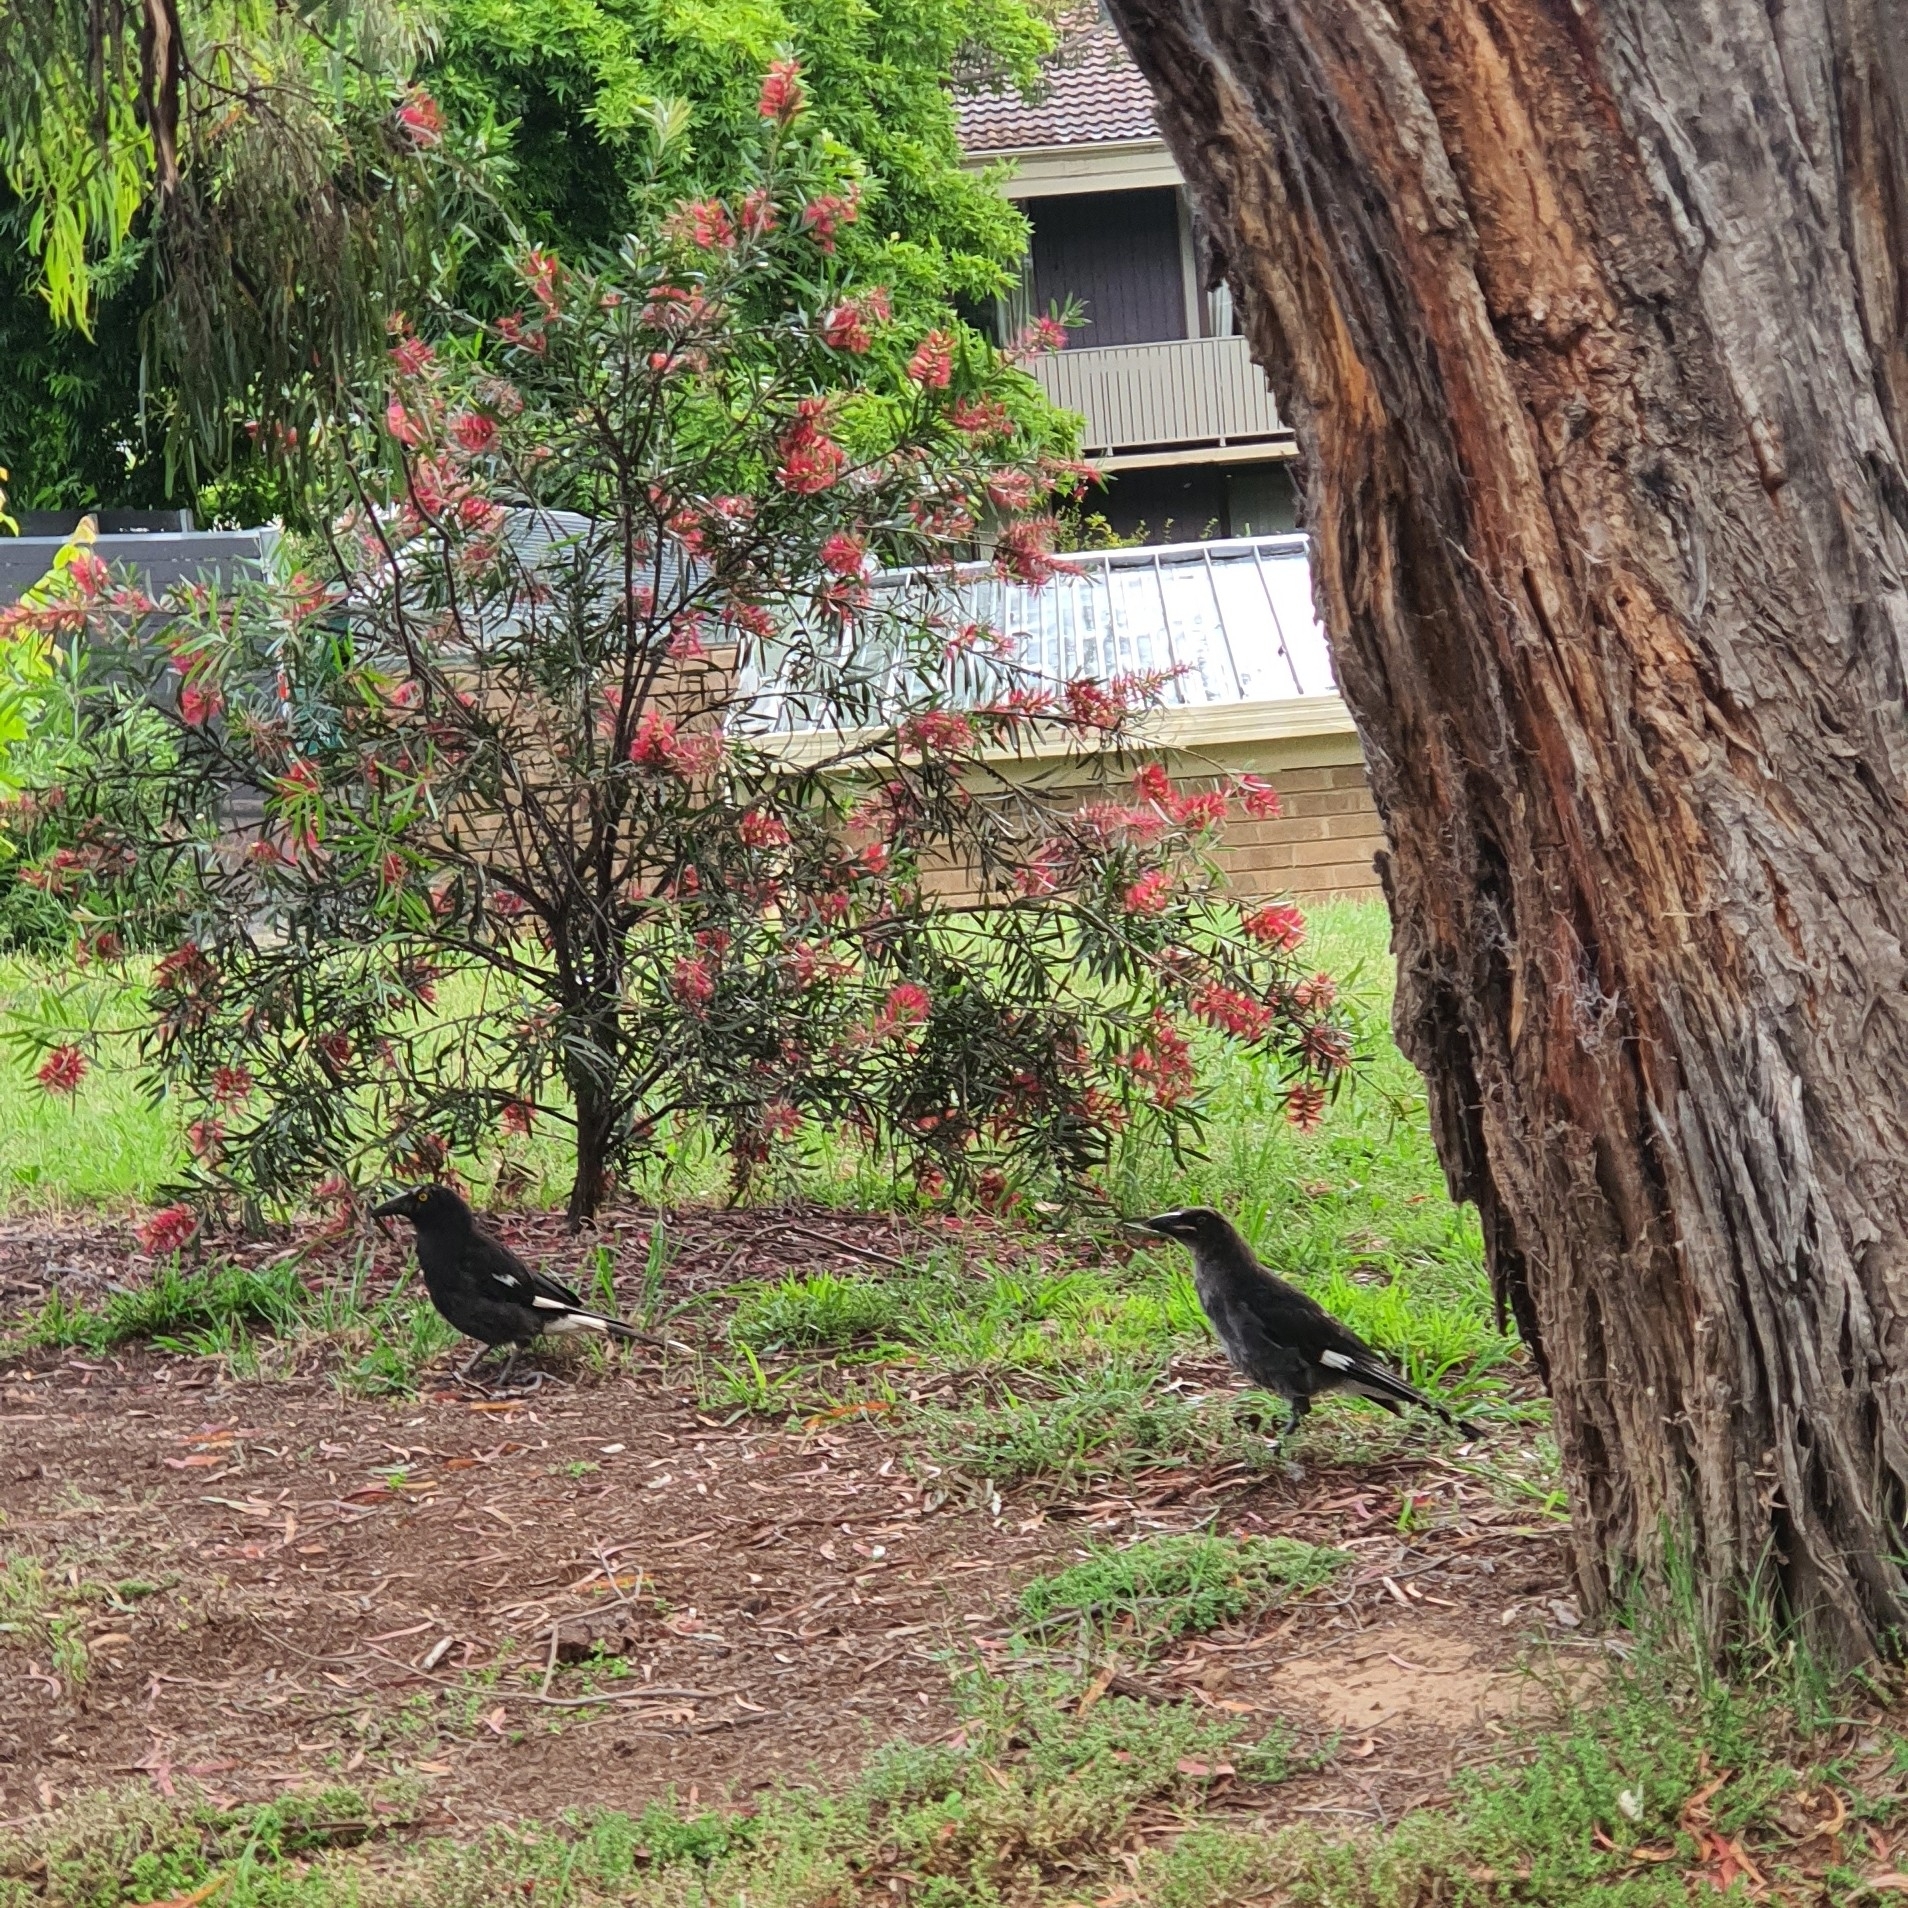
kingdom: Animalia
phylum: Chordata
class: Aves
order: Passeriformes
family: Cracticidae
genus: Strepera
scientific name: Strepera graculina
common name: Pied currawong
